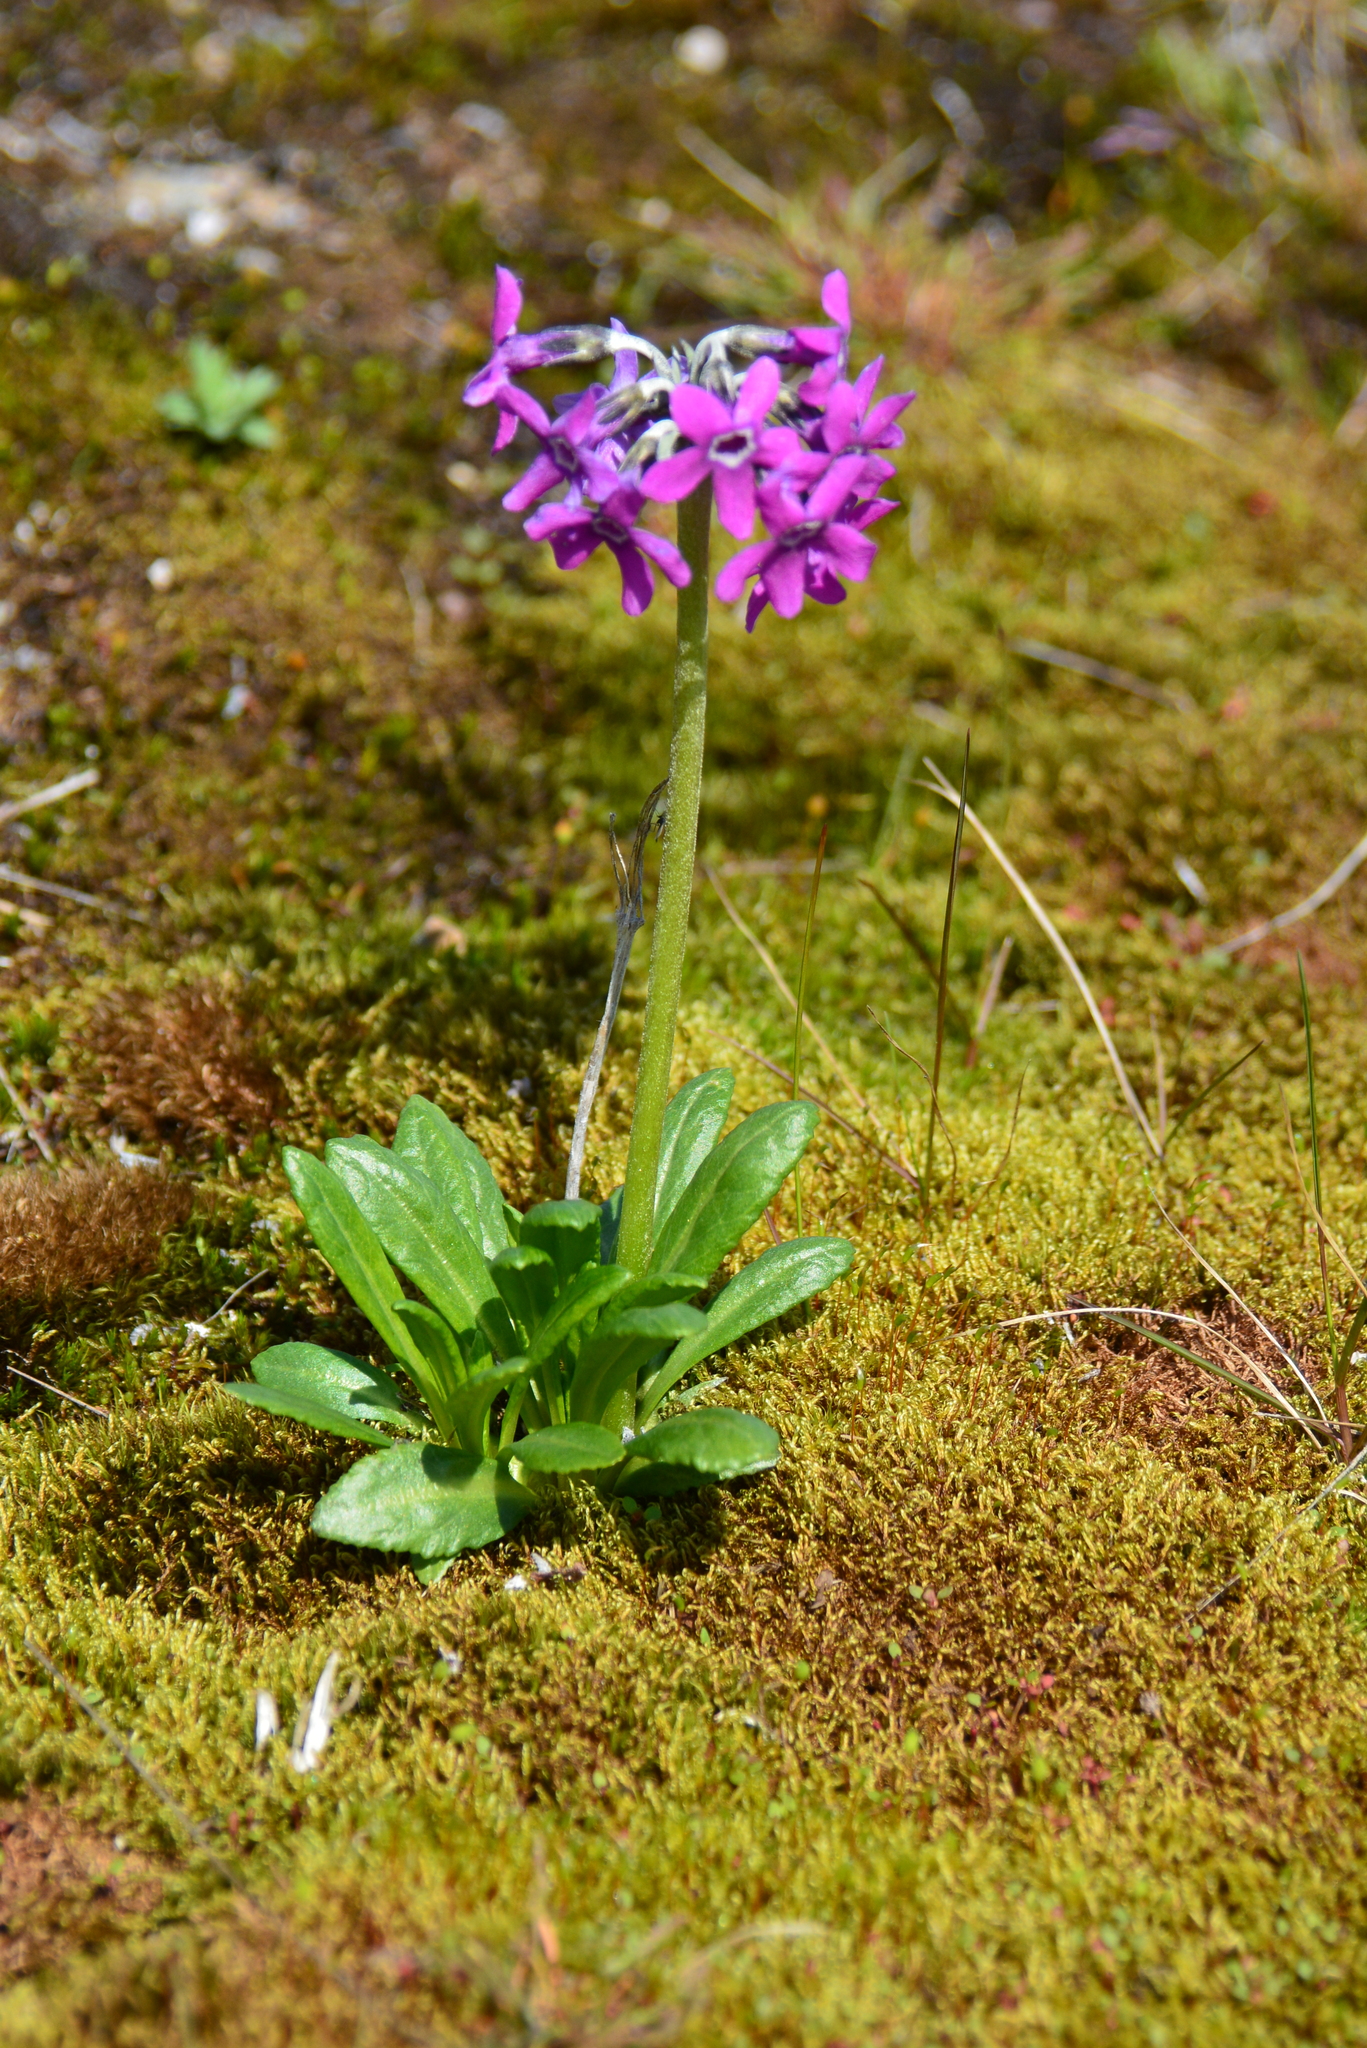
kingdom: Plantae
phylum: Tracheophyta
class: Magnoliopsida
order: Ericales
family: Primulaceae
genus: Primula
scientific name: Primula pumila
